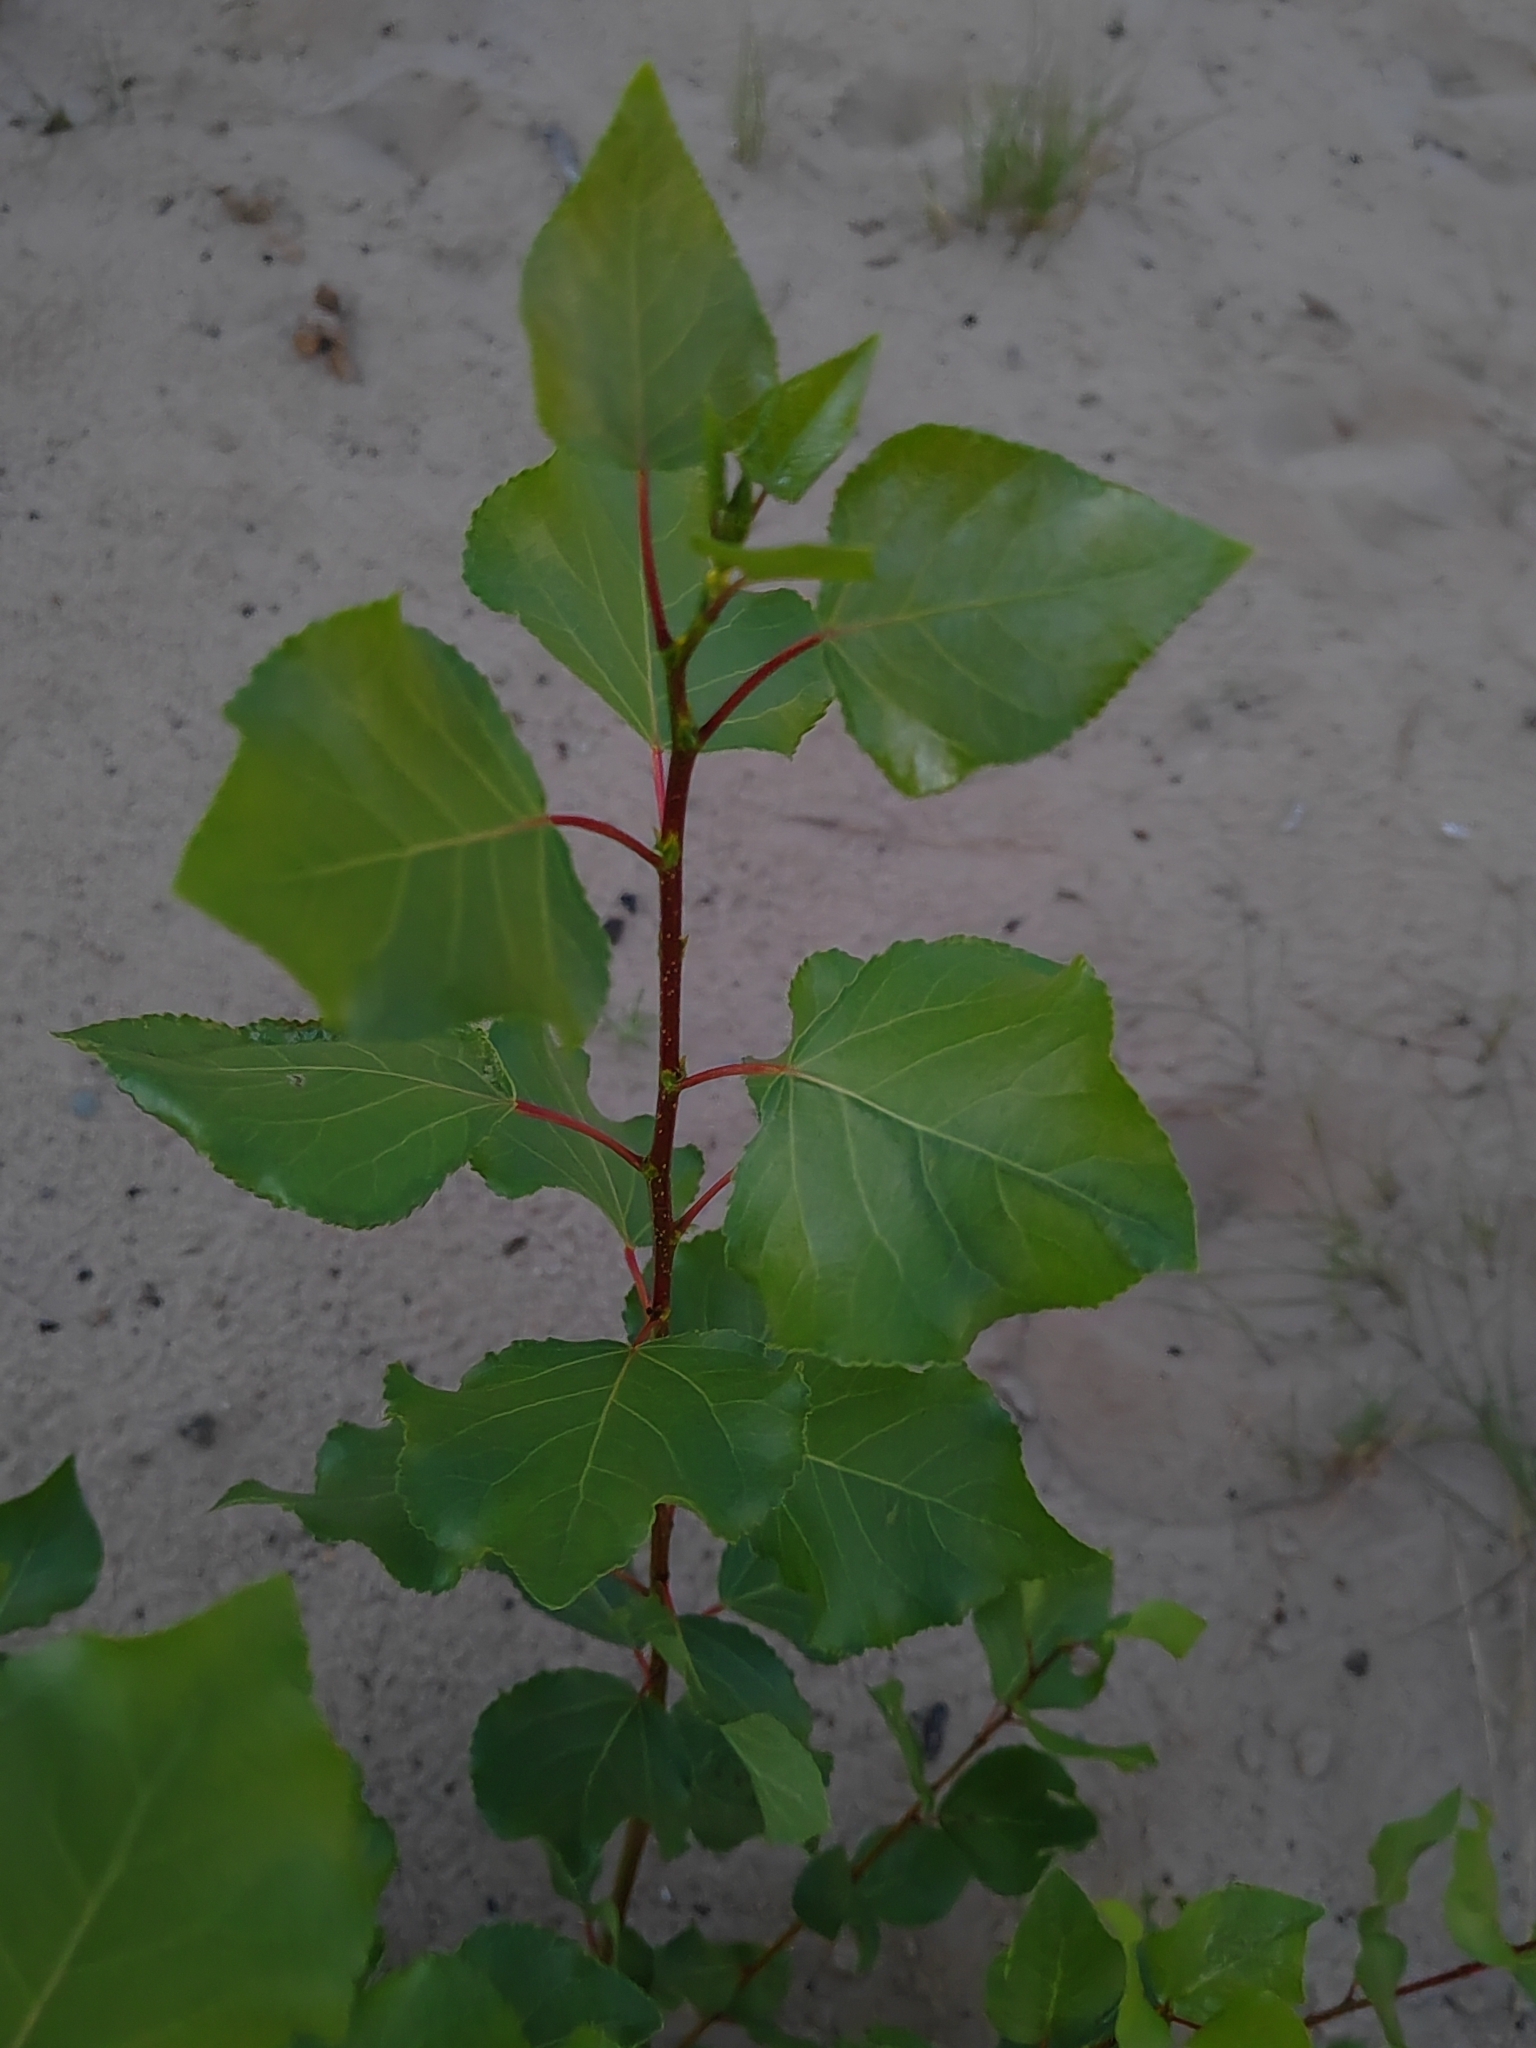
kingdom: Plantae
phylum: Tracheophyta
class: Magnoliopsida
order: Malpighiales
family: Salicaceae
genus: Populus
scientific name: Populus nigra
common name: Black poplar
